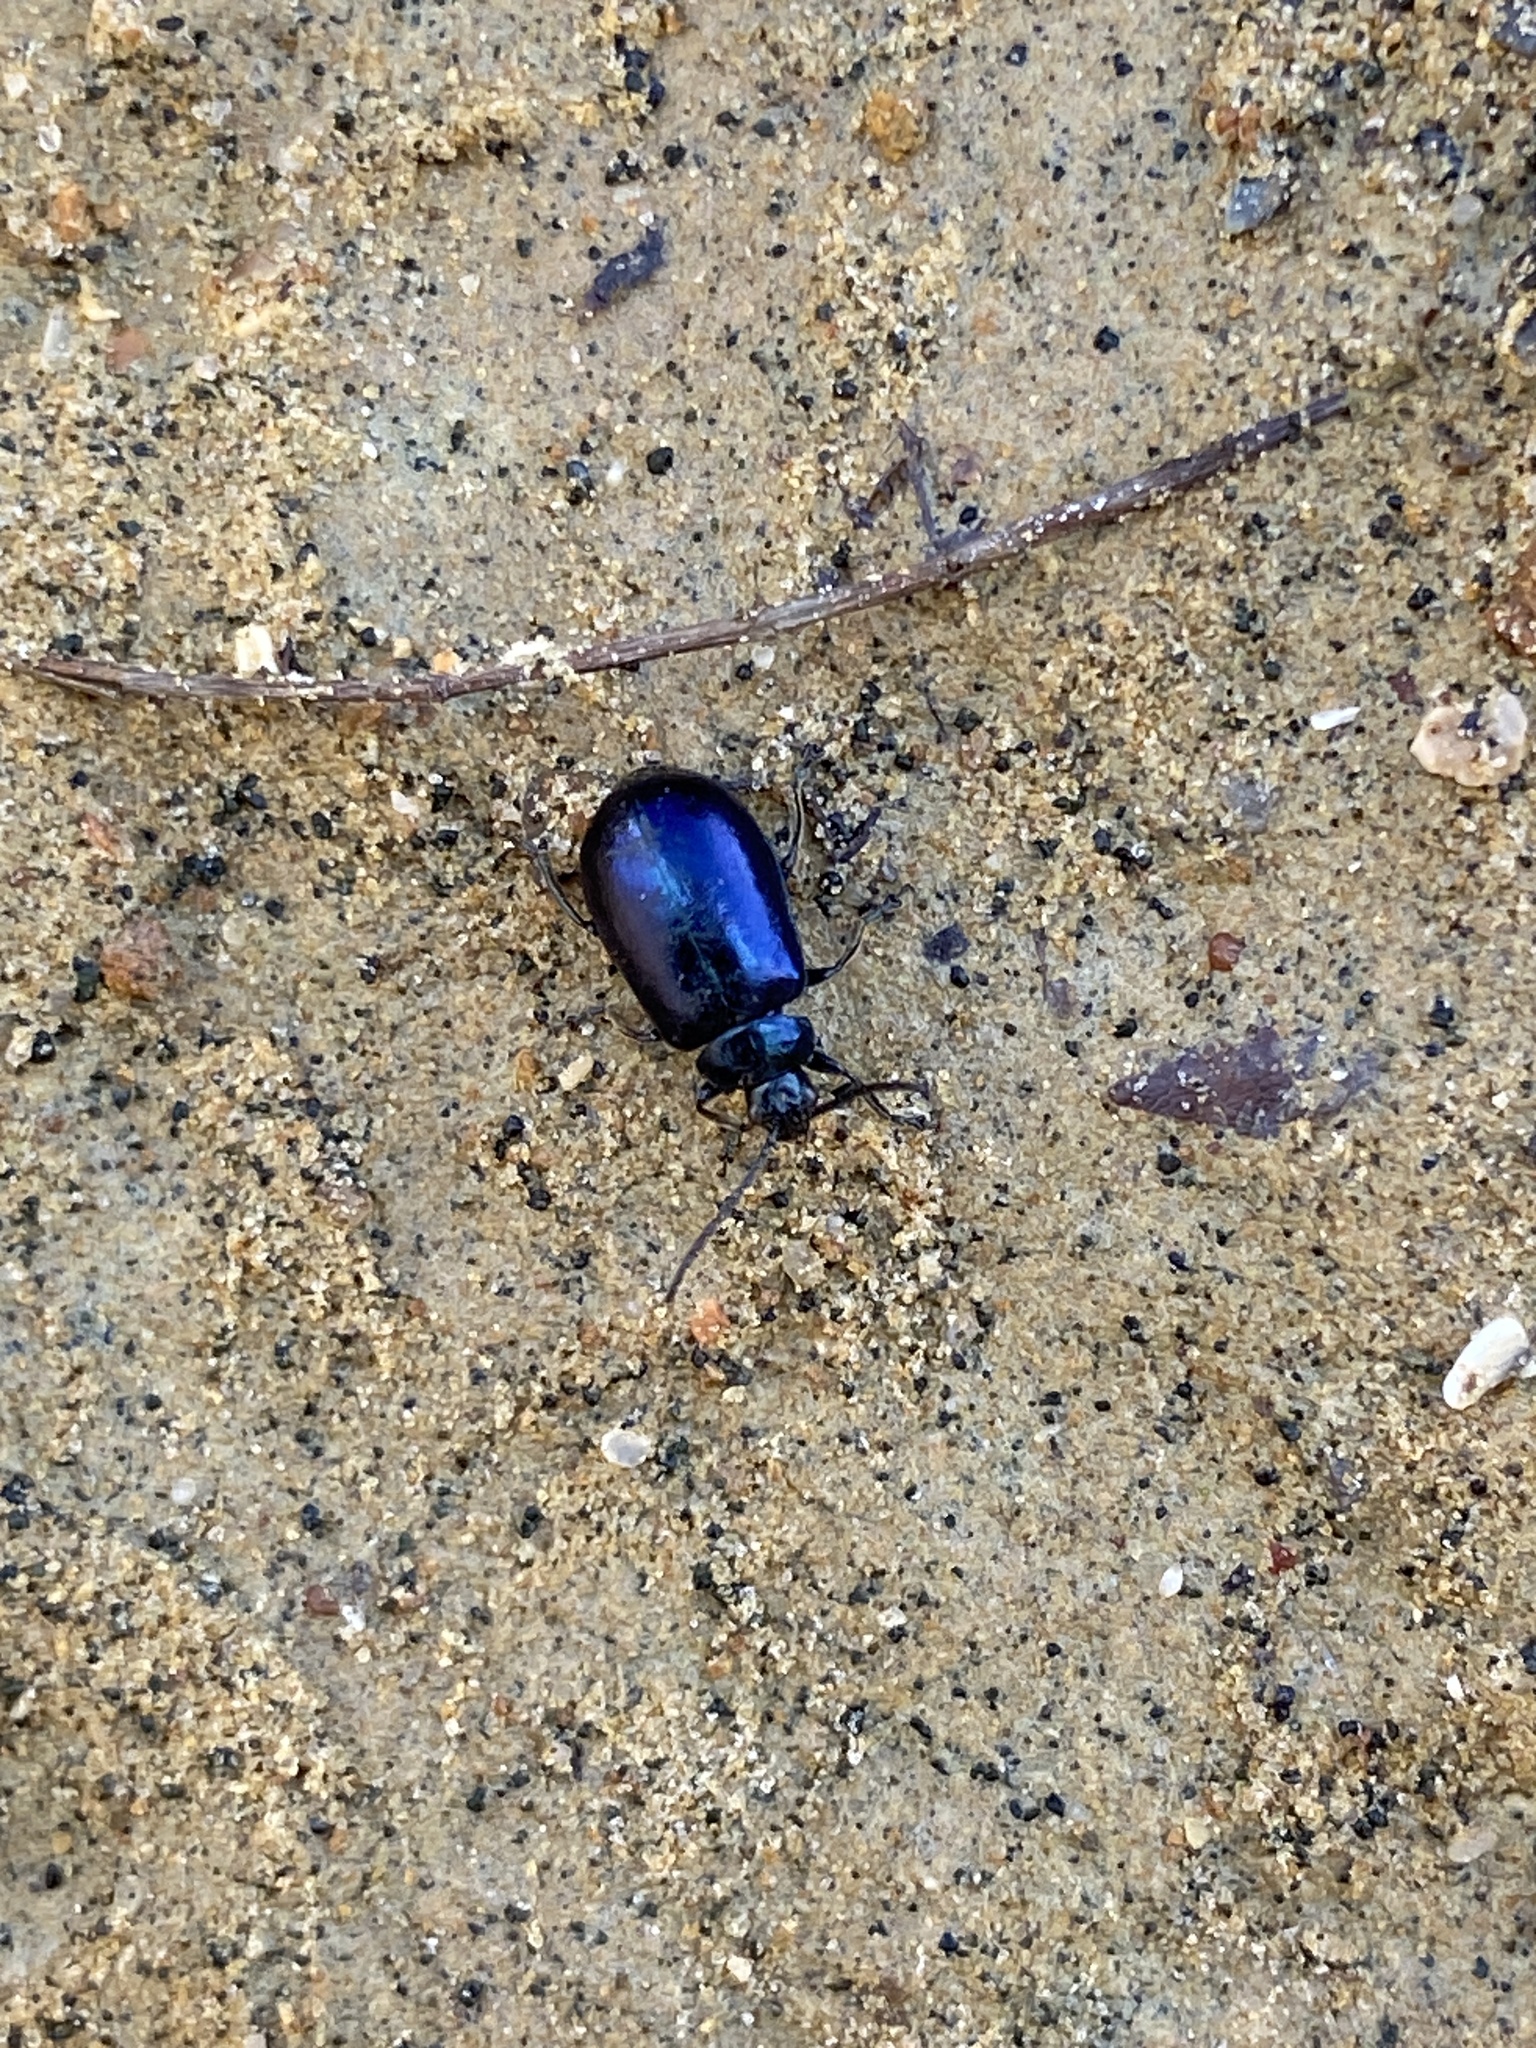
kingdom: Animalia
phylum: Arthropoda
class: Insecta
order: Coleoptera
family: Chrysomelidae
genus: Agelastica
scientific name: Agelastica alni
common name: Alder leaf beetle
